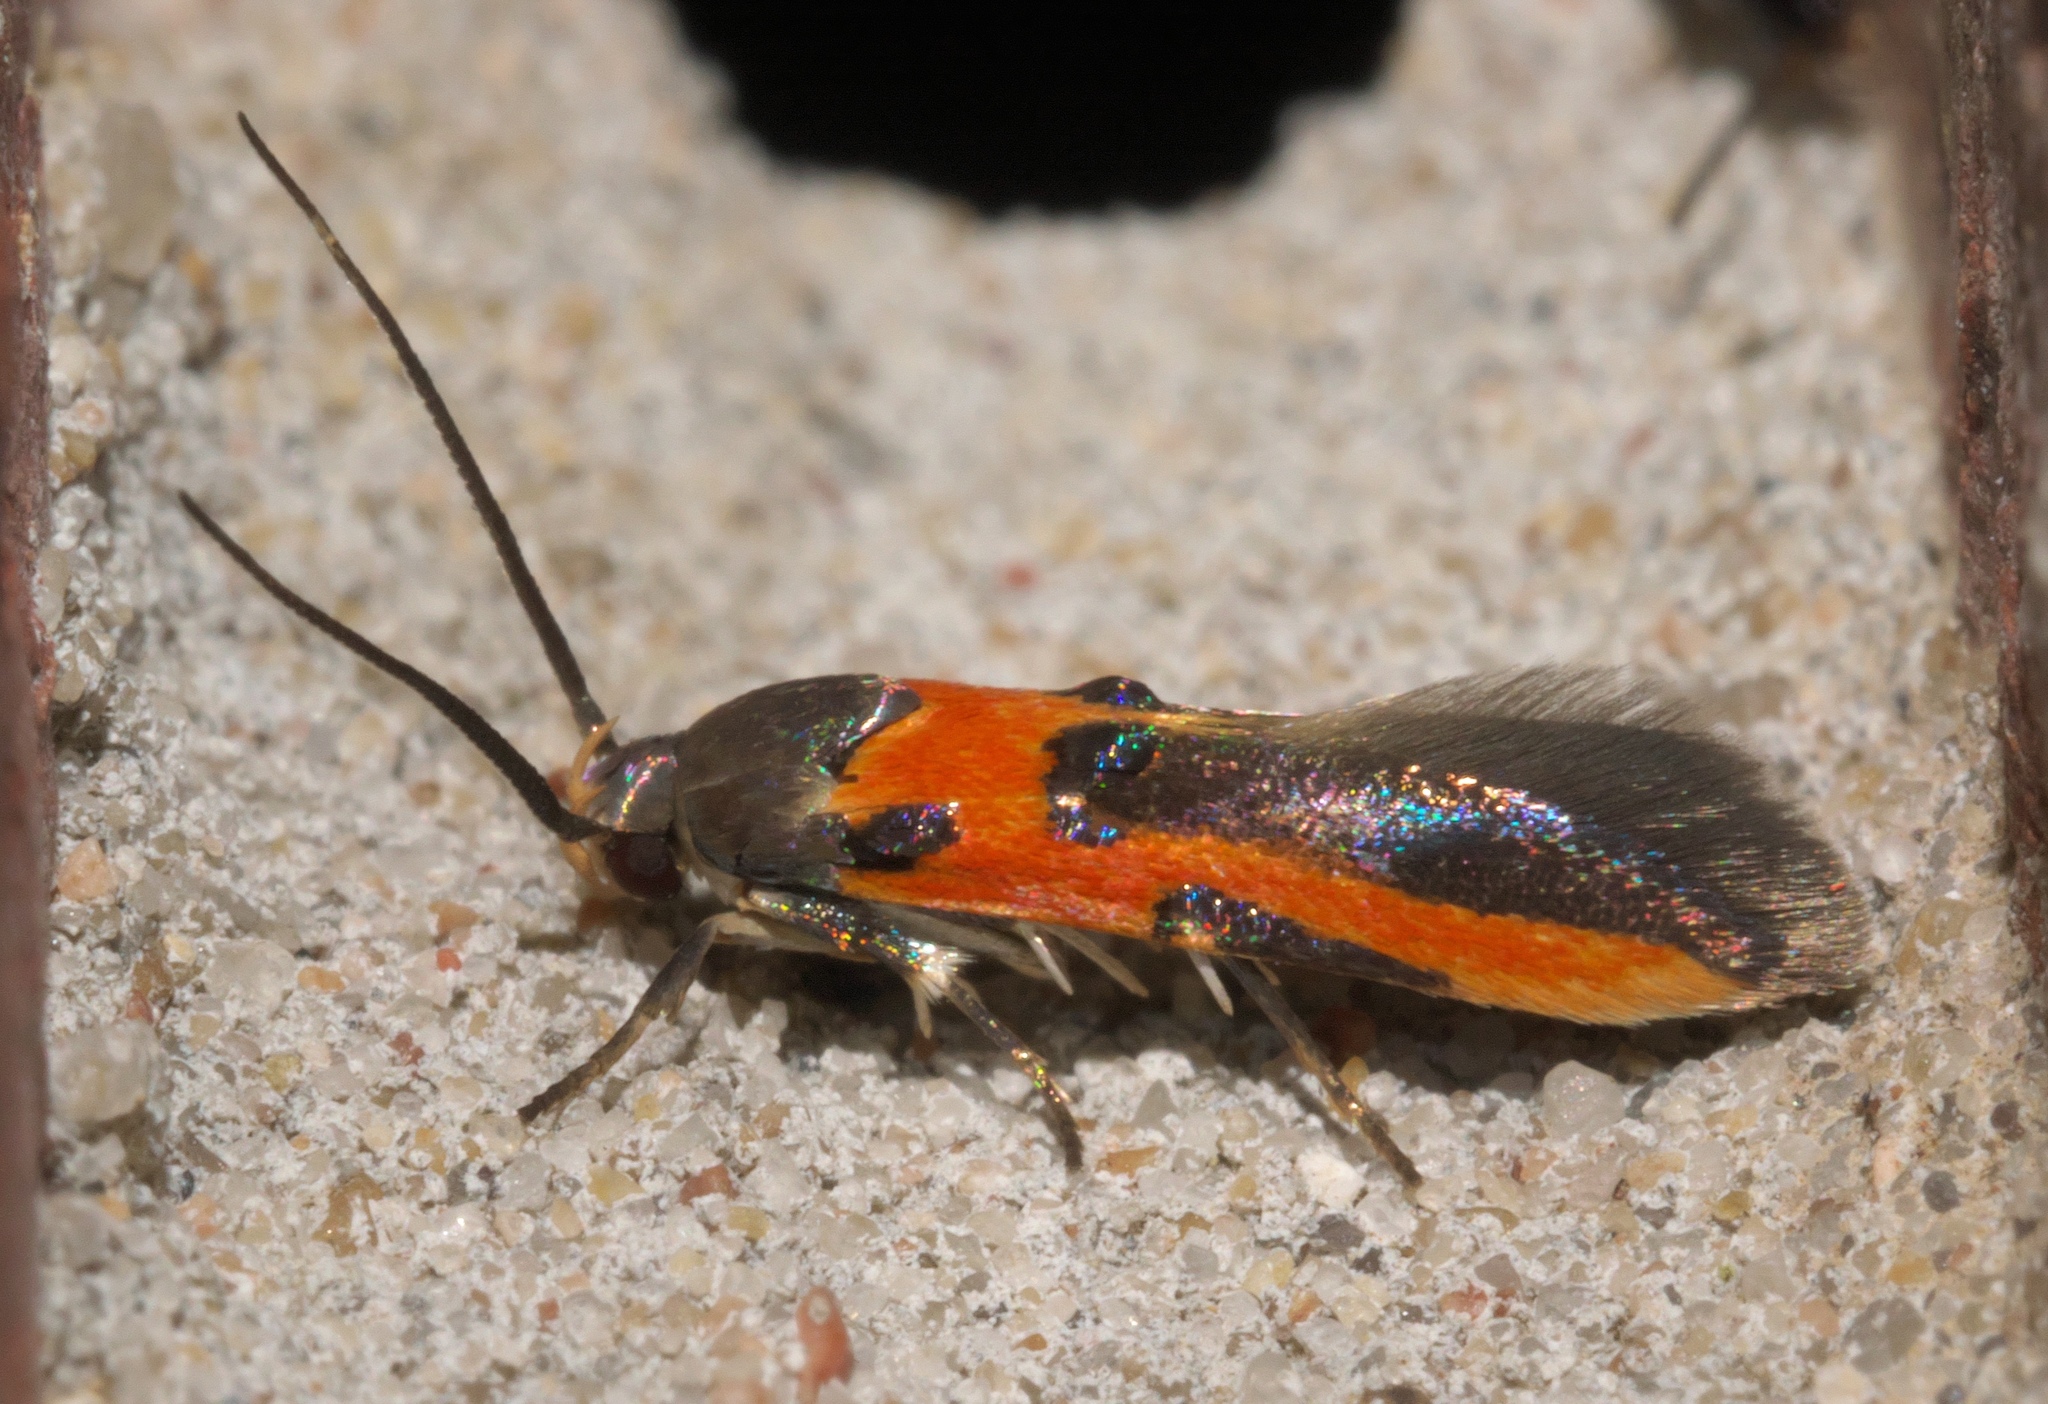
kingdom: Animalia
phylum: Arthropoda
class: Insecta
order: Lepidoptera
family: Cosmopterigidae
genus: Euclemensia
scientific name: Euclemensia bassettella
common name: Kermes scale moth
